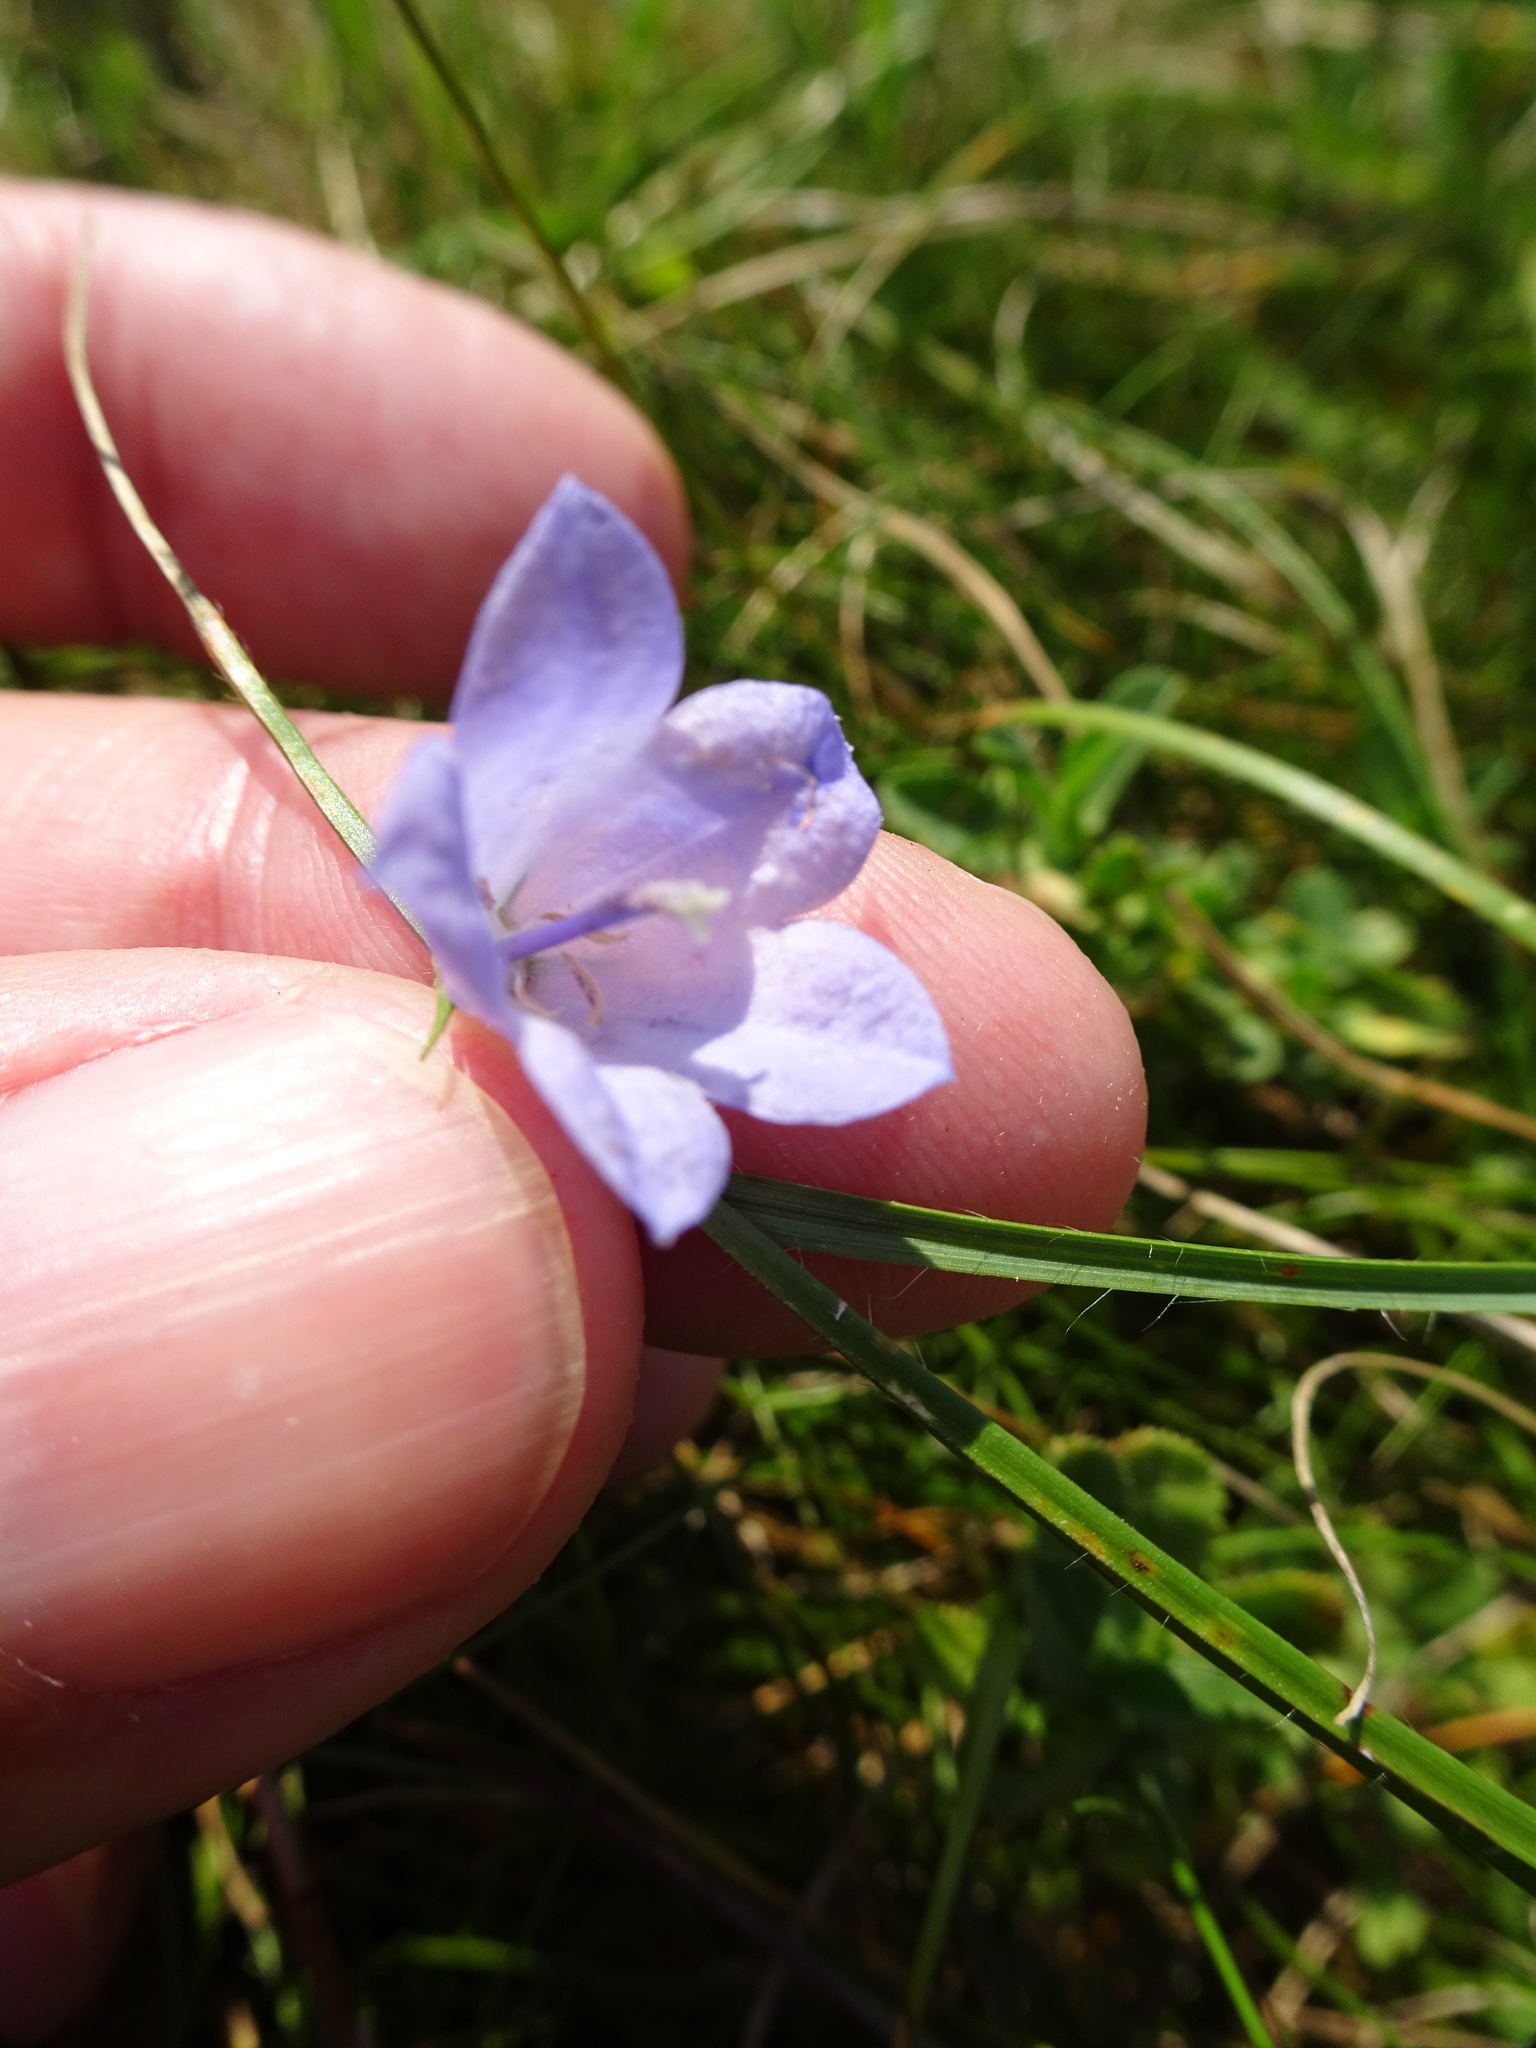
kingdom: Plantae
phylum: Tracheophyta
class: Magnoliopsida
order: Asterales
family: Campanulaceae
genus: Campanula
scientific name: Campanula rotundifolia
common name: Harebell
